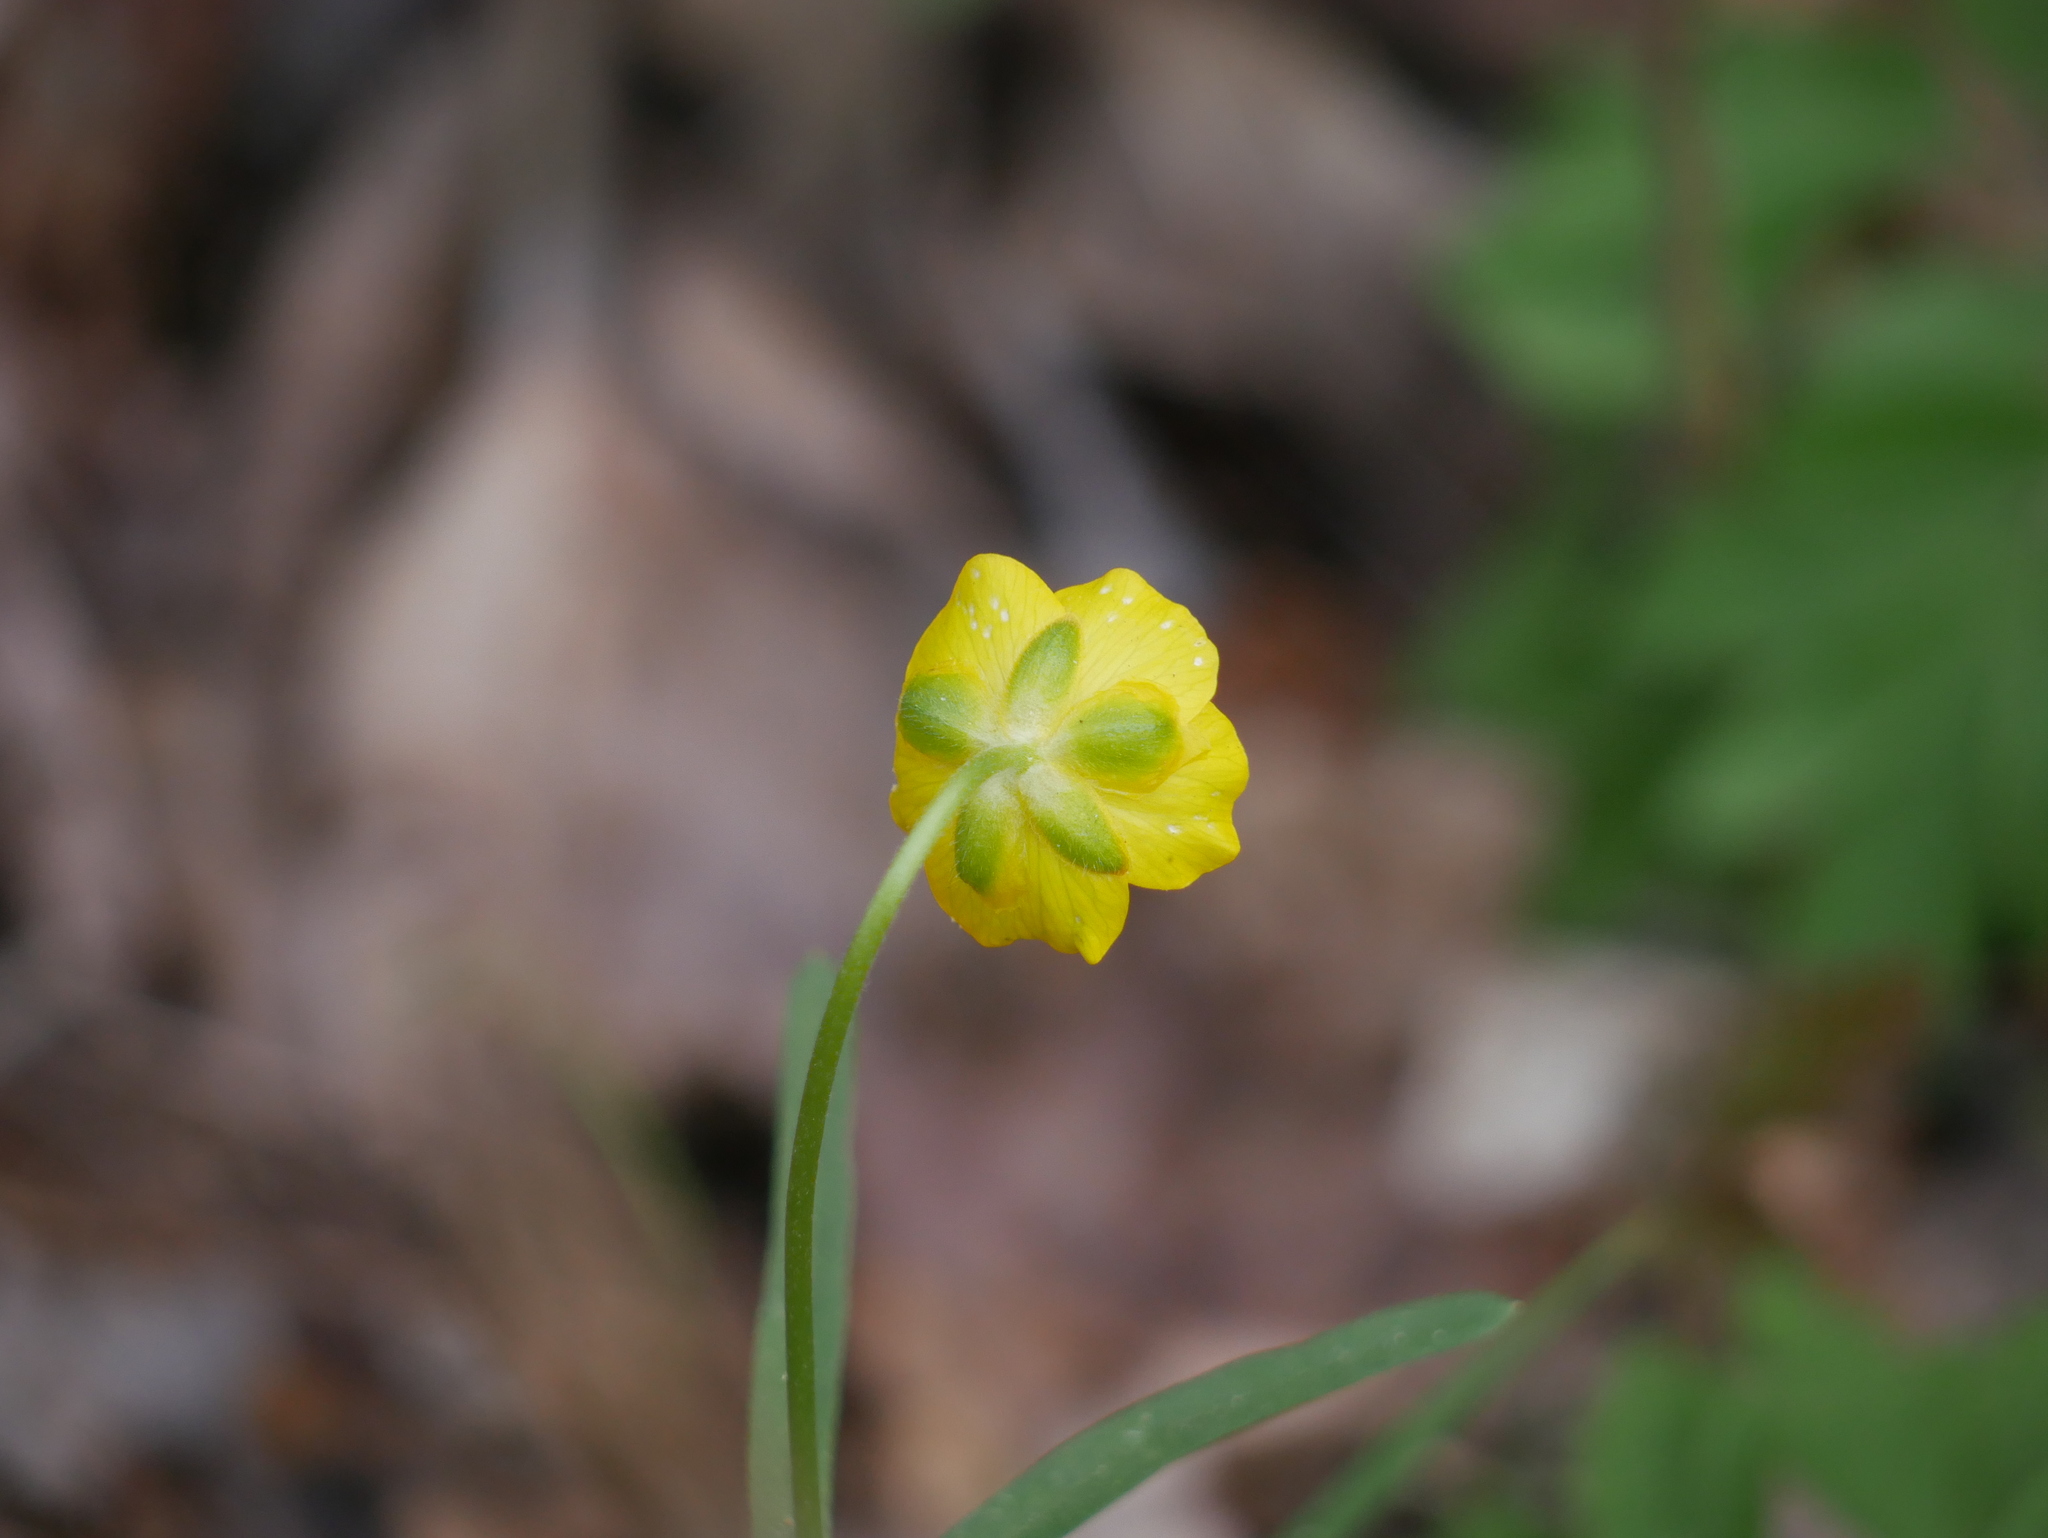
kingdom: Plantae
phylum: Tracheophyta
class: Magnoliopsida
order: Ranunculales
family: Ranunculaceae
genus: Ranunculus
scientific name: Ranunculus auricomus
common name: Goldilocks buttercup
